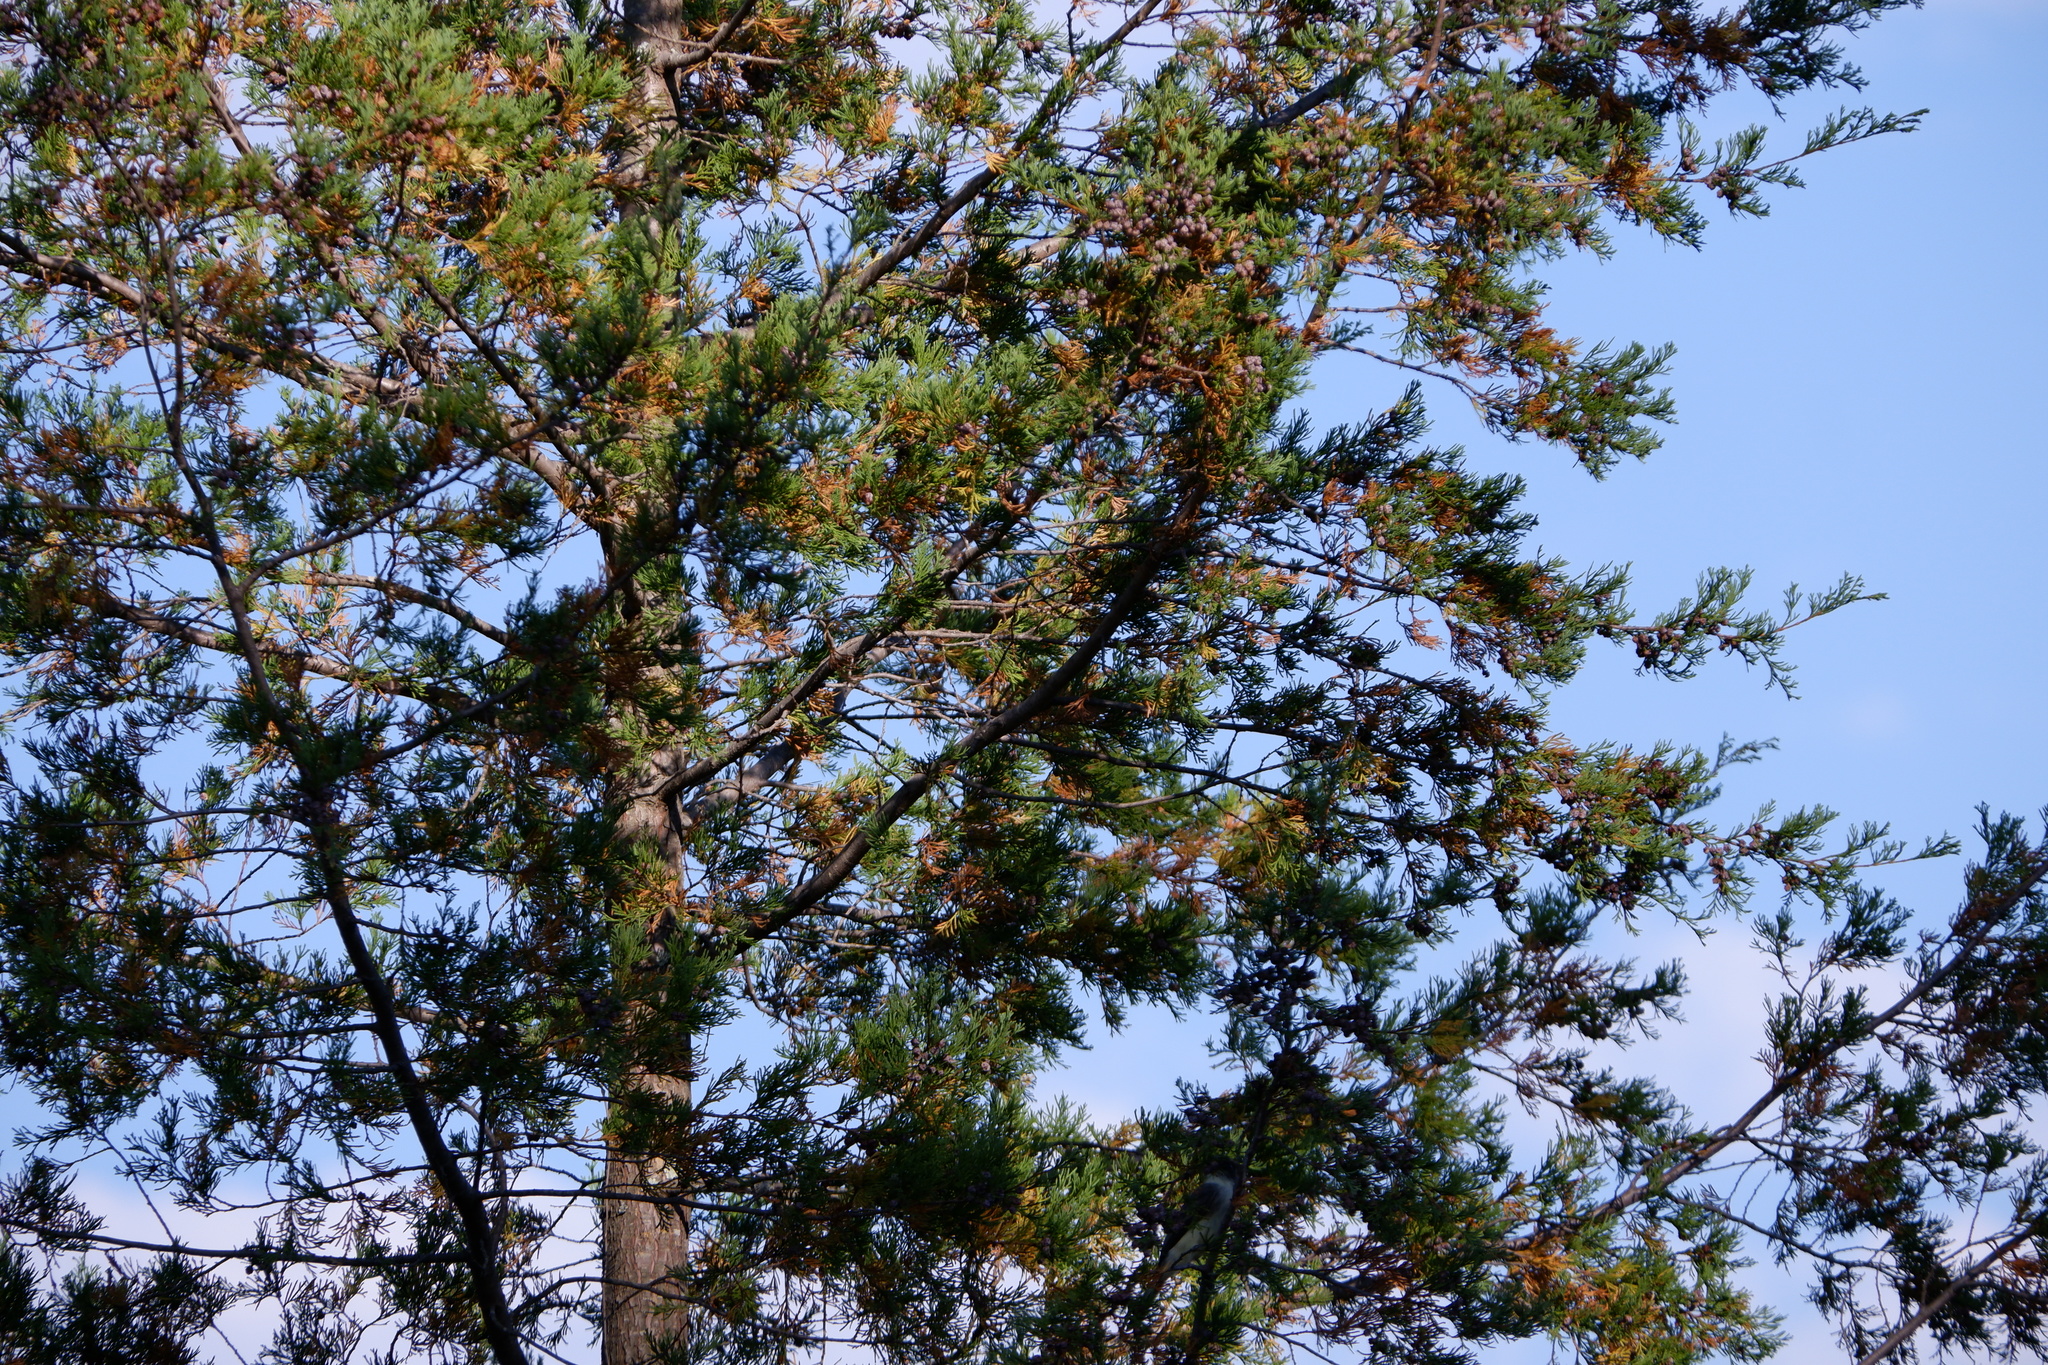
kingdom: Animalia
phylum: Chordata
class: Aves
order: Passeriformes
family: Tyrannidae
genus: Sayornis
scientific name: Sayornis phoebe
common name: Eastern phoebe
